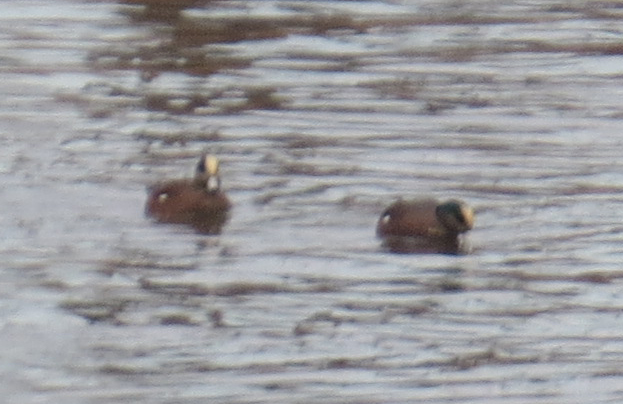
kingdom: Animalia
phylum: Chordata
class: Aves
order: Anseriformes
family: Anatidae
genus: Mareca
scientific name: Mareca americana
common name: American wigeon
